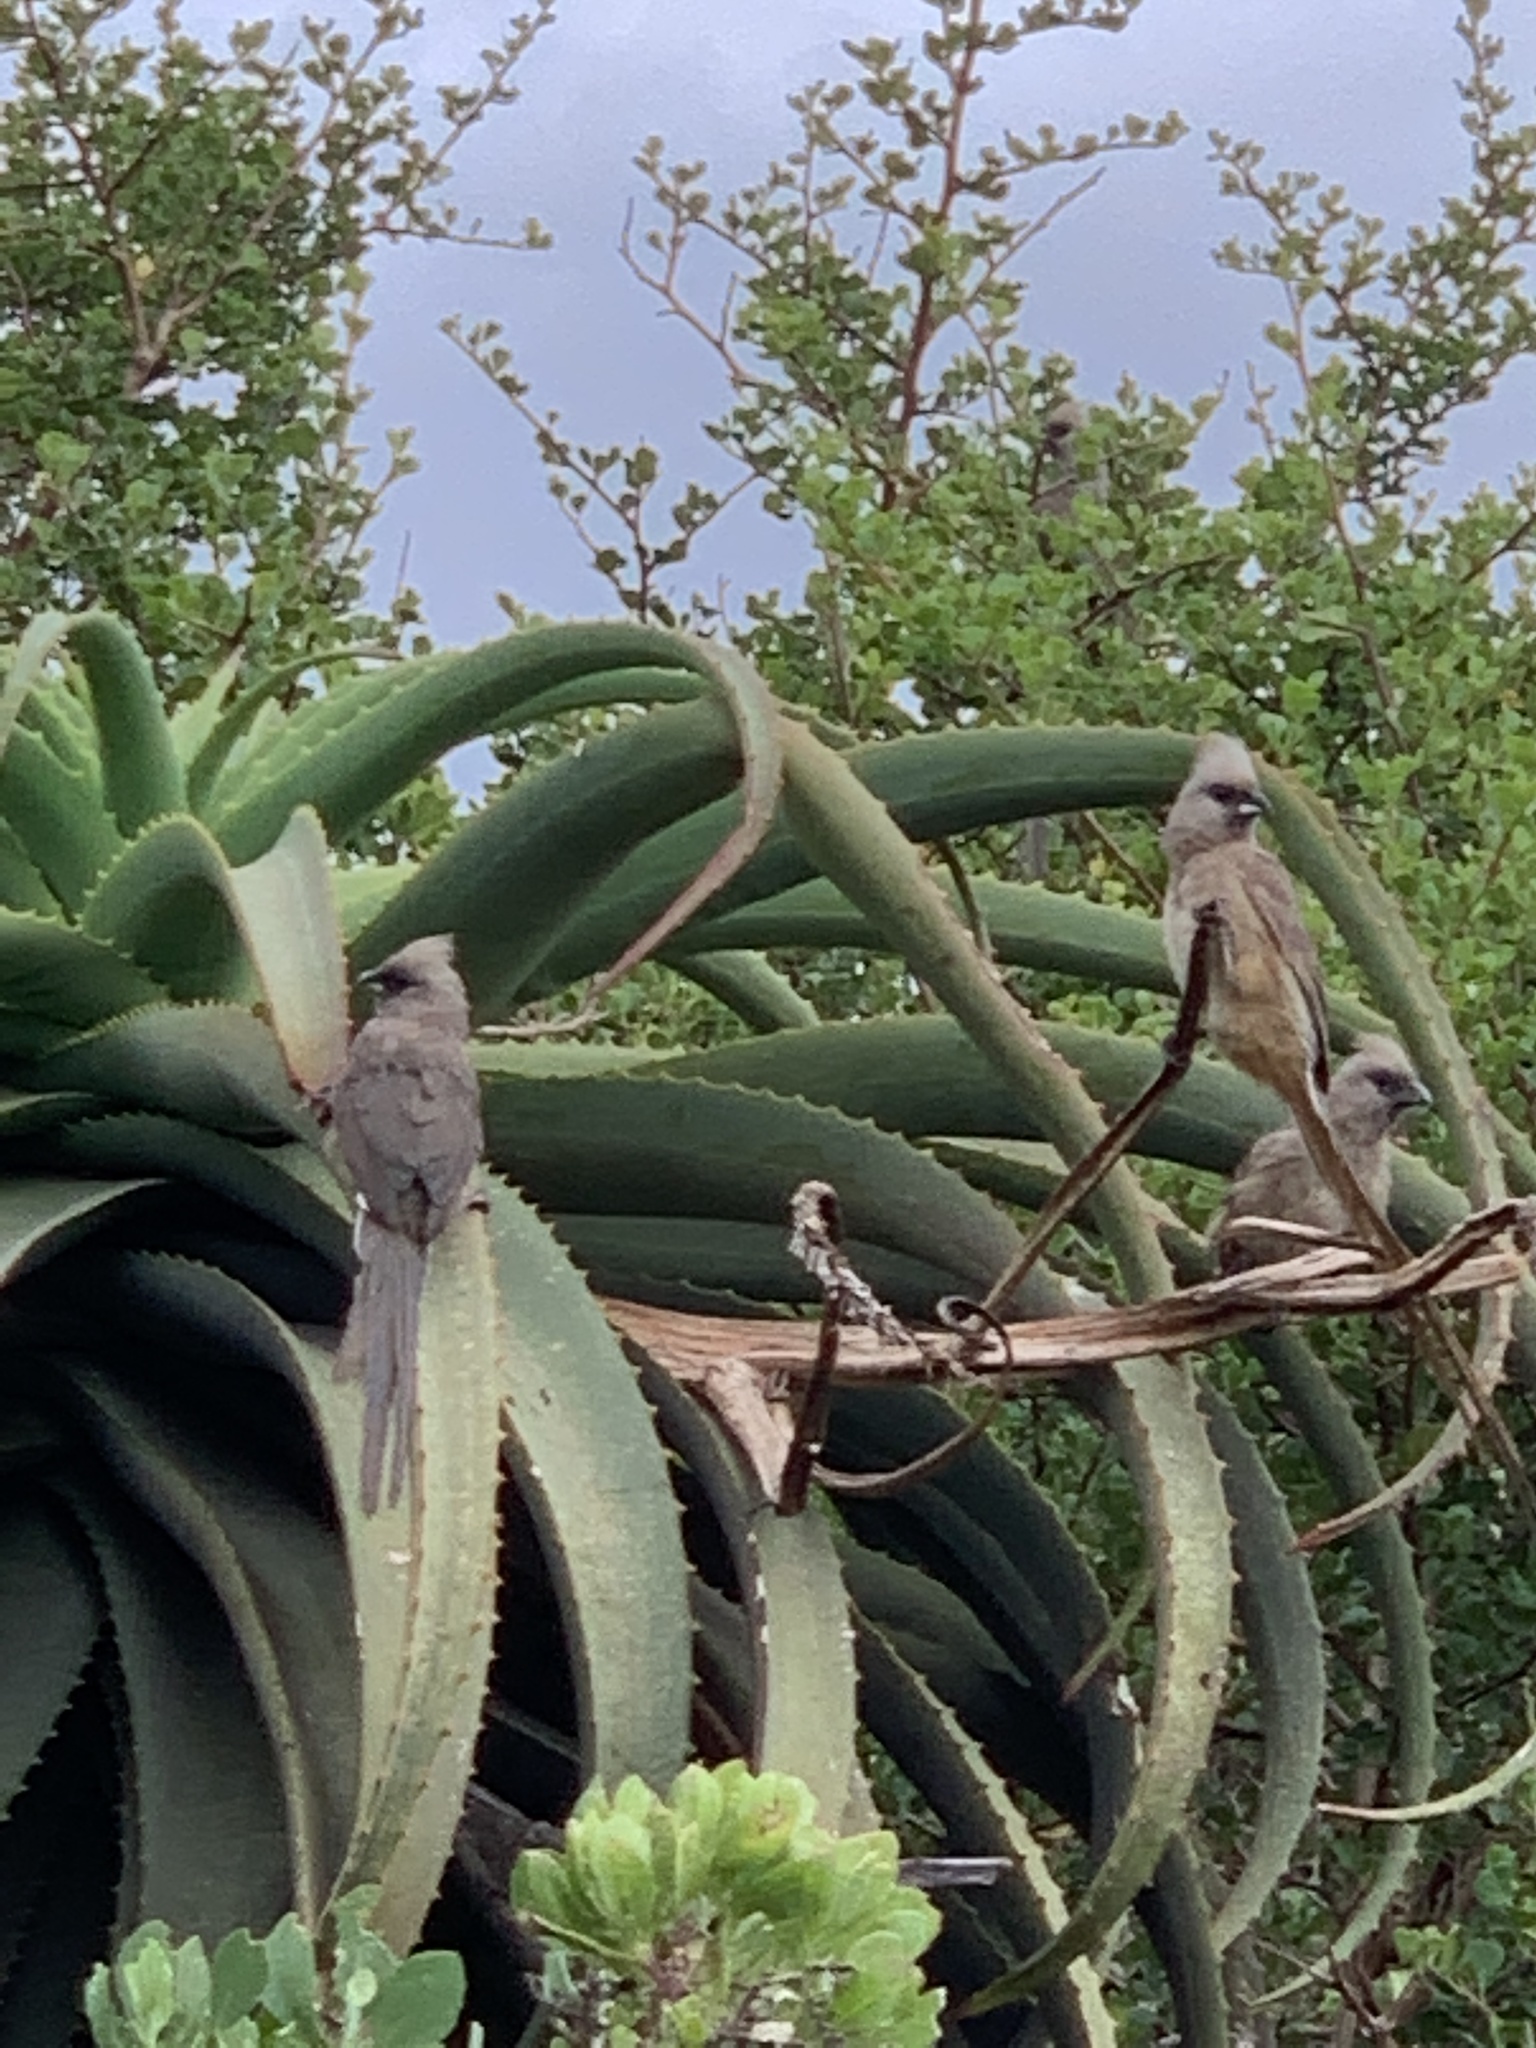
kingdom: Animalia
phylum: Chordata
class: Aves
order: Coliiformes
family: Coliidae
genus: Colius
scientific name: Colius striatus
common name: Speckled mousebird
